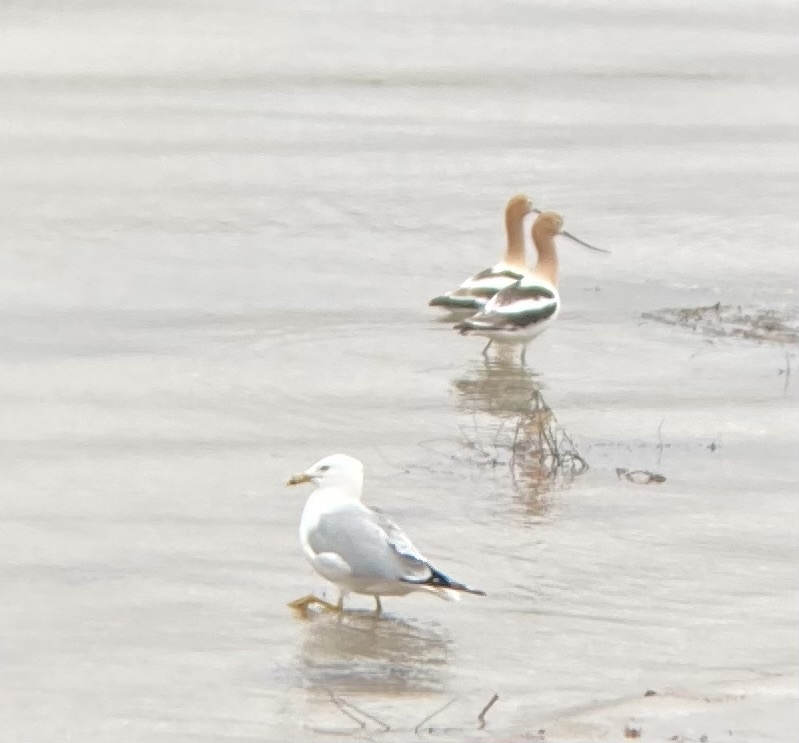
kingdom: Animalia
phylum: Chordata
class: Aves
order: Charadriiformes
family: Laridae
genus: Larus
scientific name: Larus delawarensis
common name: Ring-billed gull
